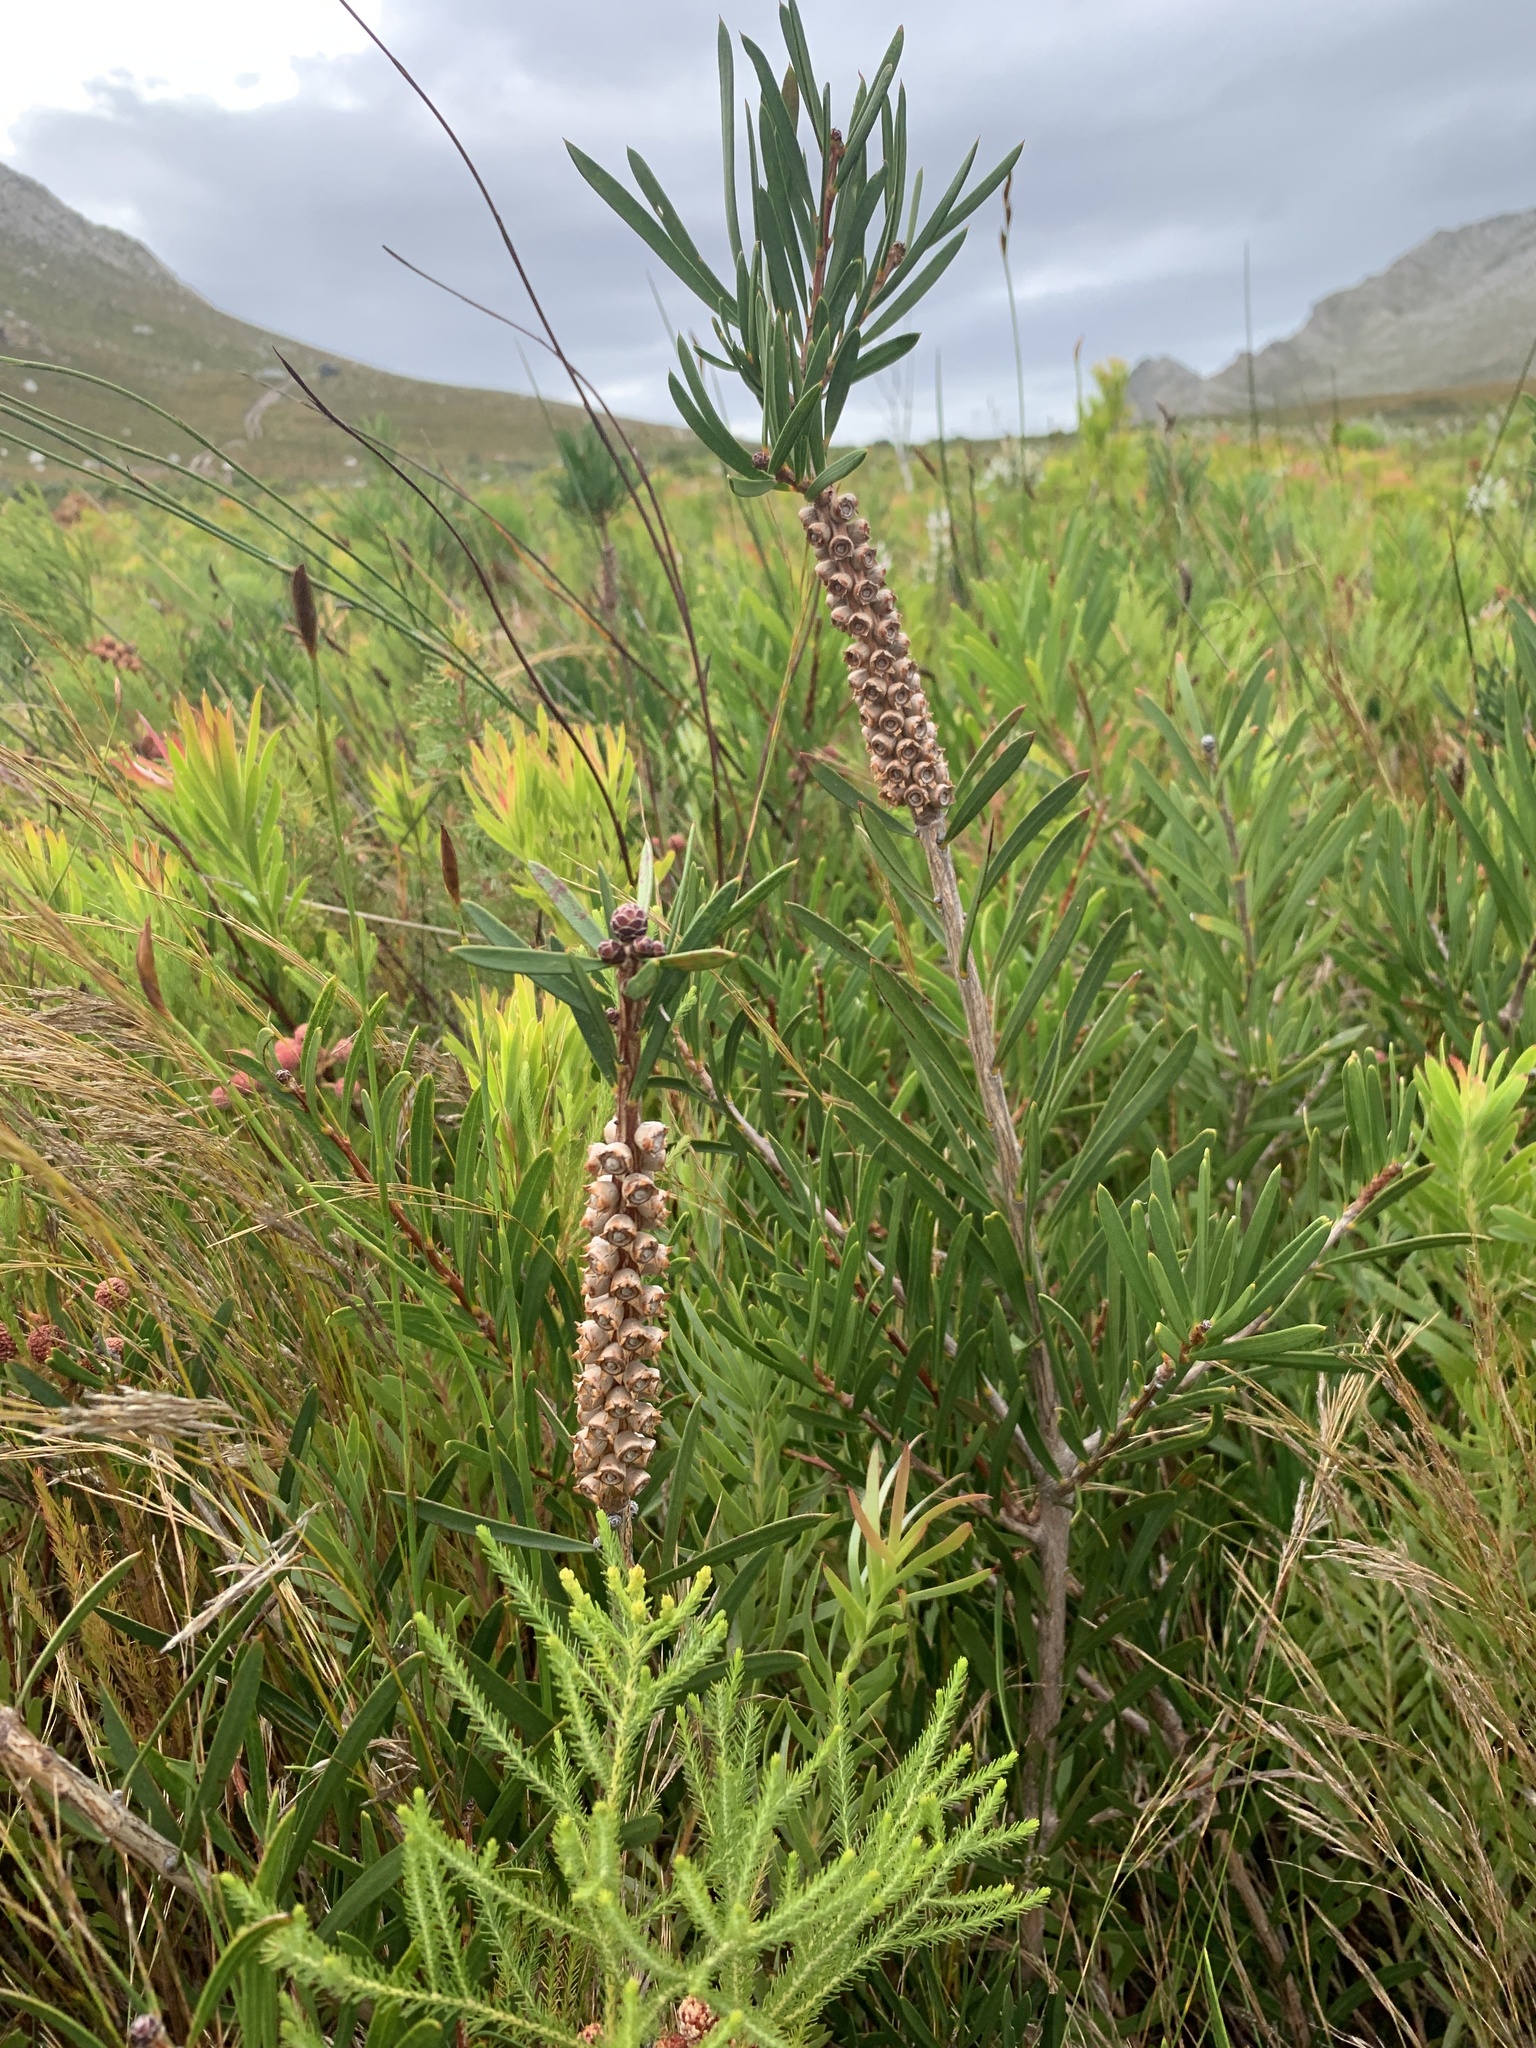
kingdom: Plantae
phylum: Tracheophyta
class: Magnoliopsida
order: Myrtales
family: Myrtaceae
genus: Callistemon
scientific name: Callistemon linearis
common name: Narrow-leaf bottlebrush
